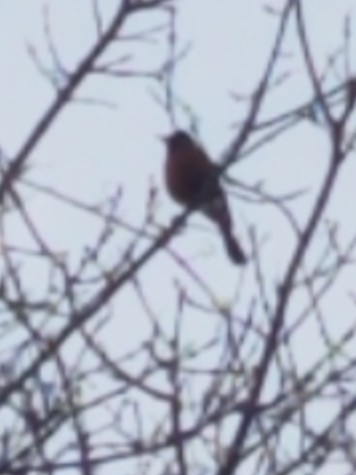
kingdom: Animalia
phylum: Chordata
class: Aves
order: Passeriformes
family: Turdidae
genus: Turdus
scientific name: Turdus migratorius
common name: American robin
